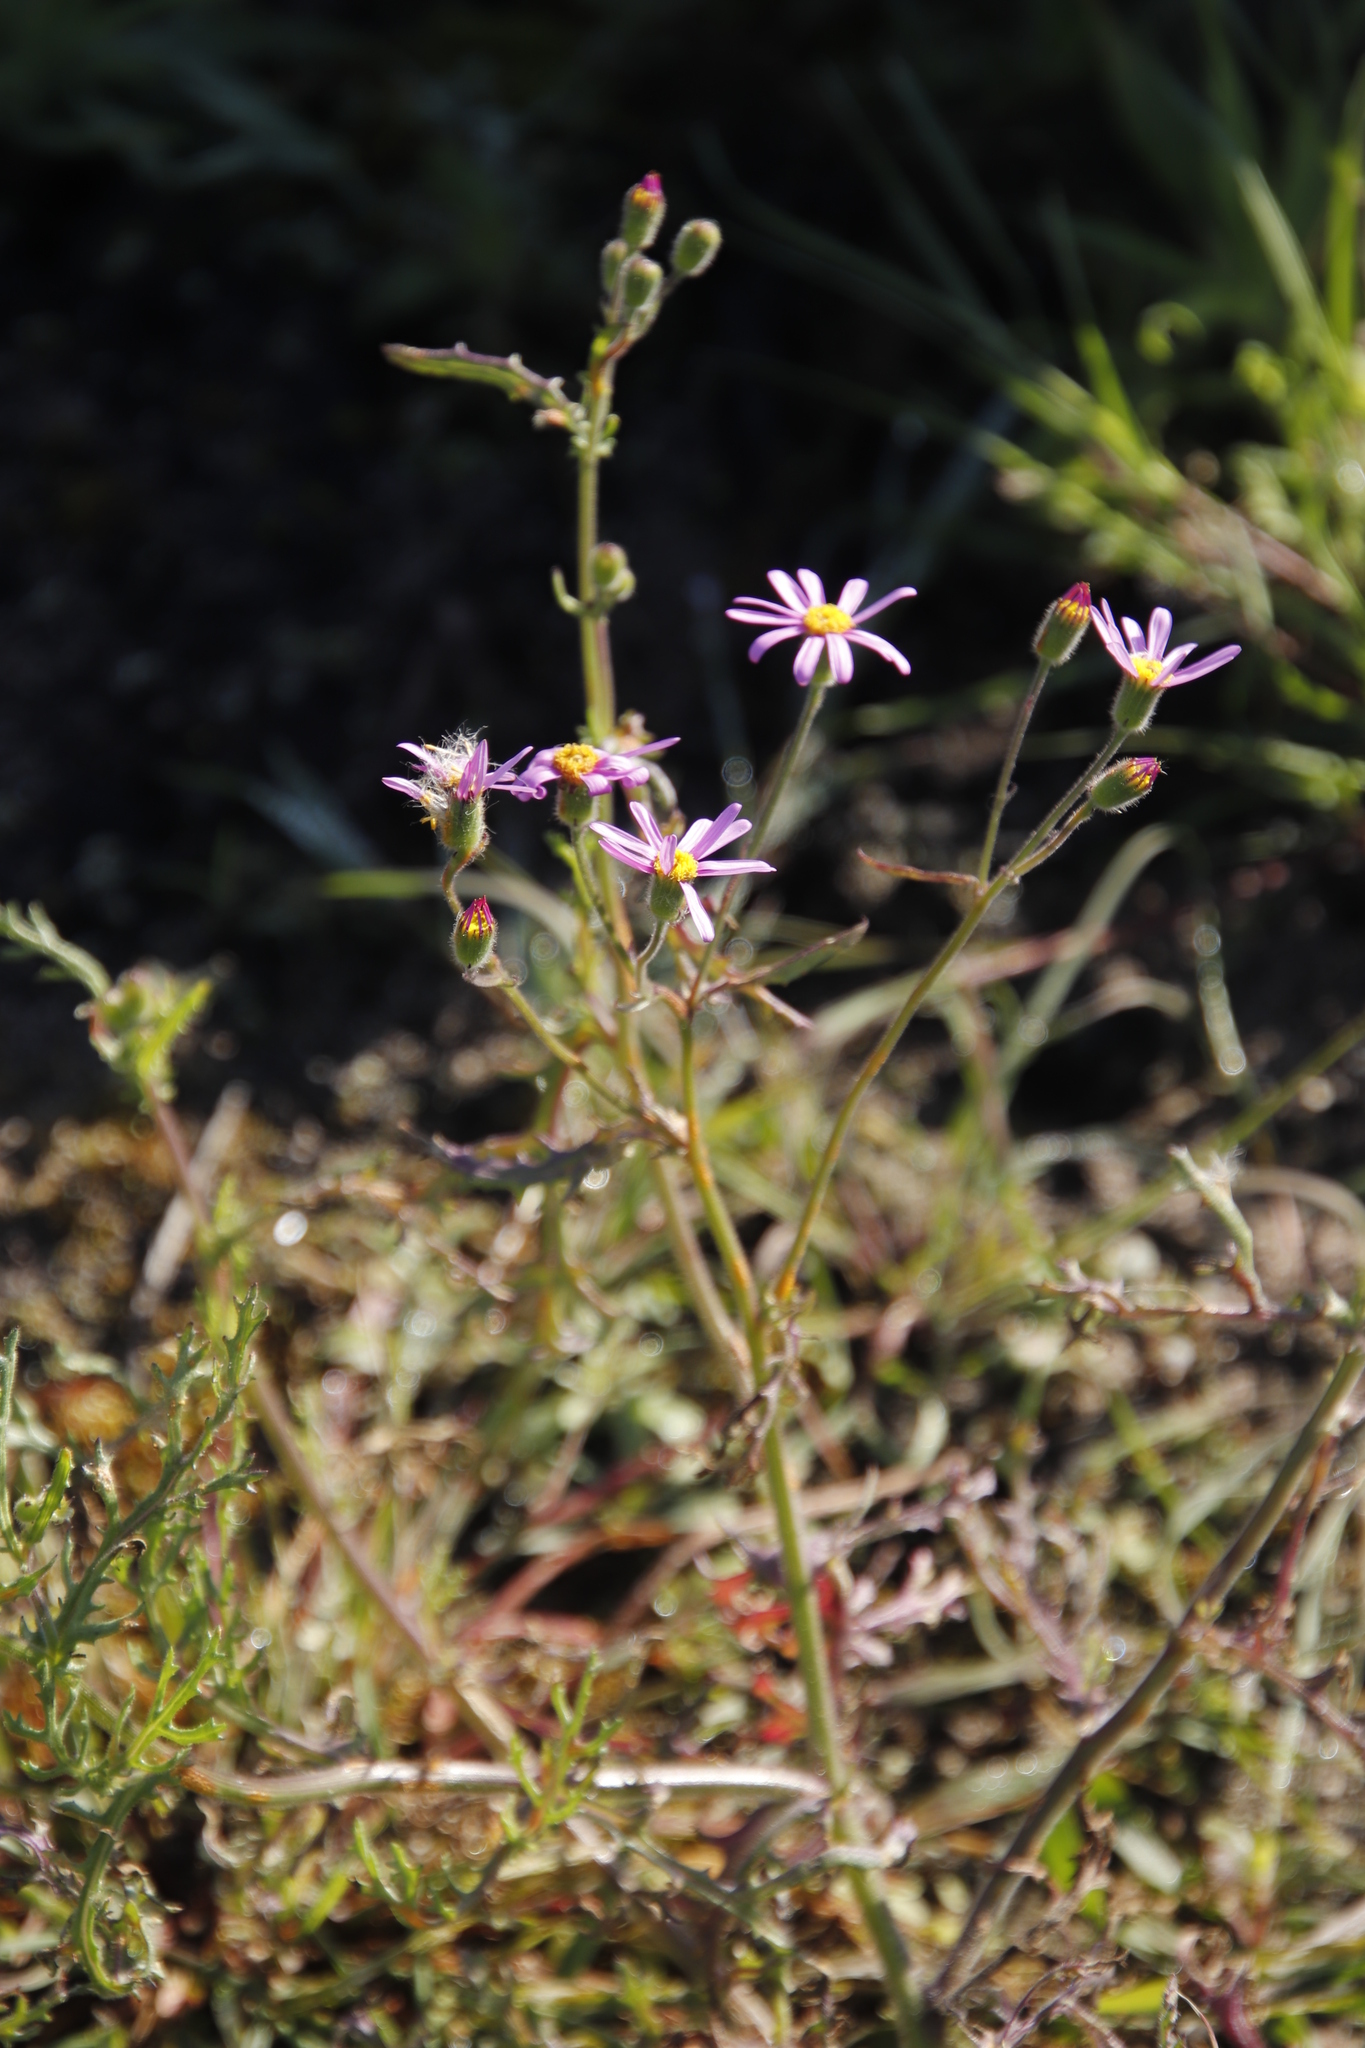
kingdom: Plantae
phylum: Tracheophyta
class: Magnoliopsida
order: Asterales
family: Asteraceae
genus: Senecio
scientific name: Senecio arenarius
